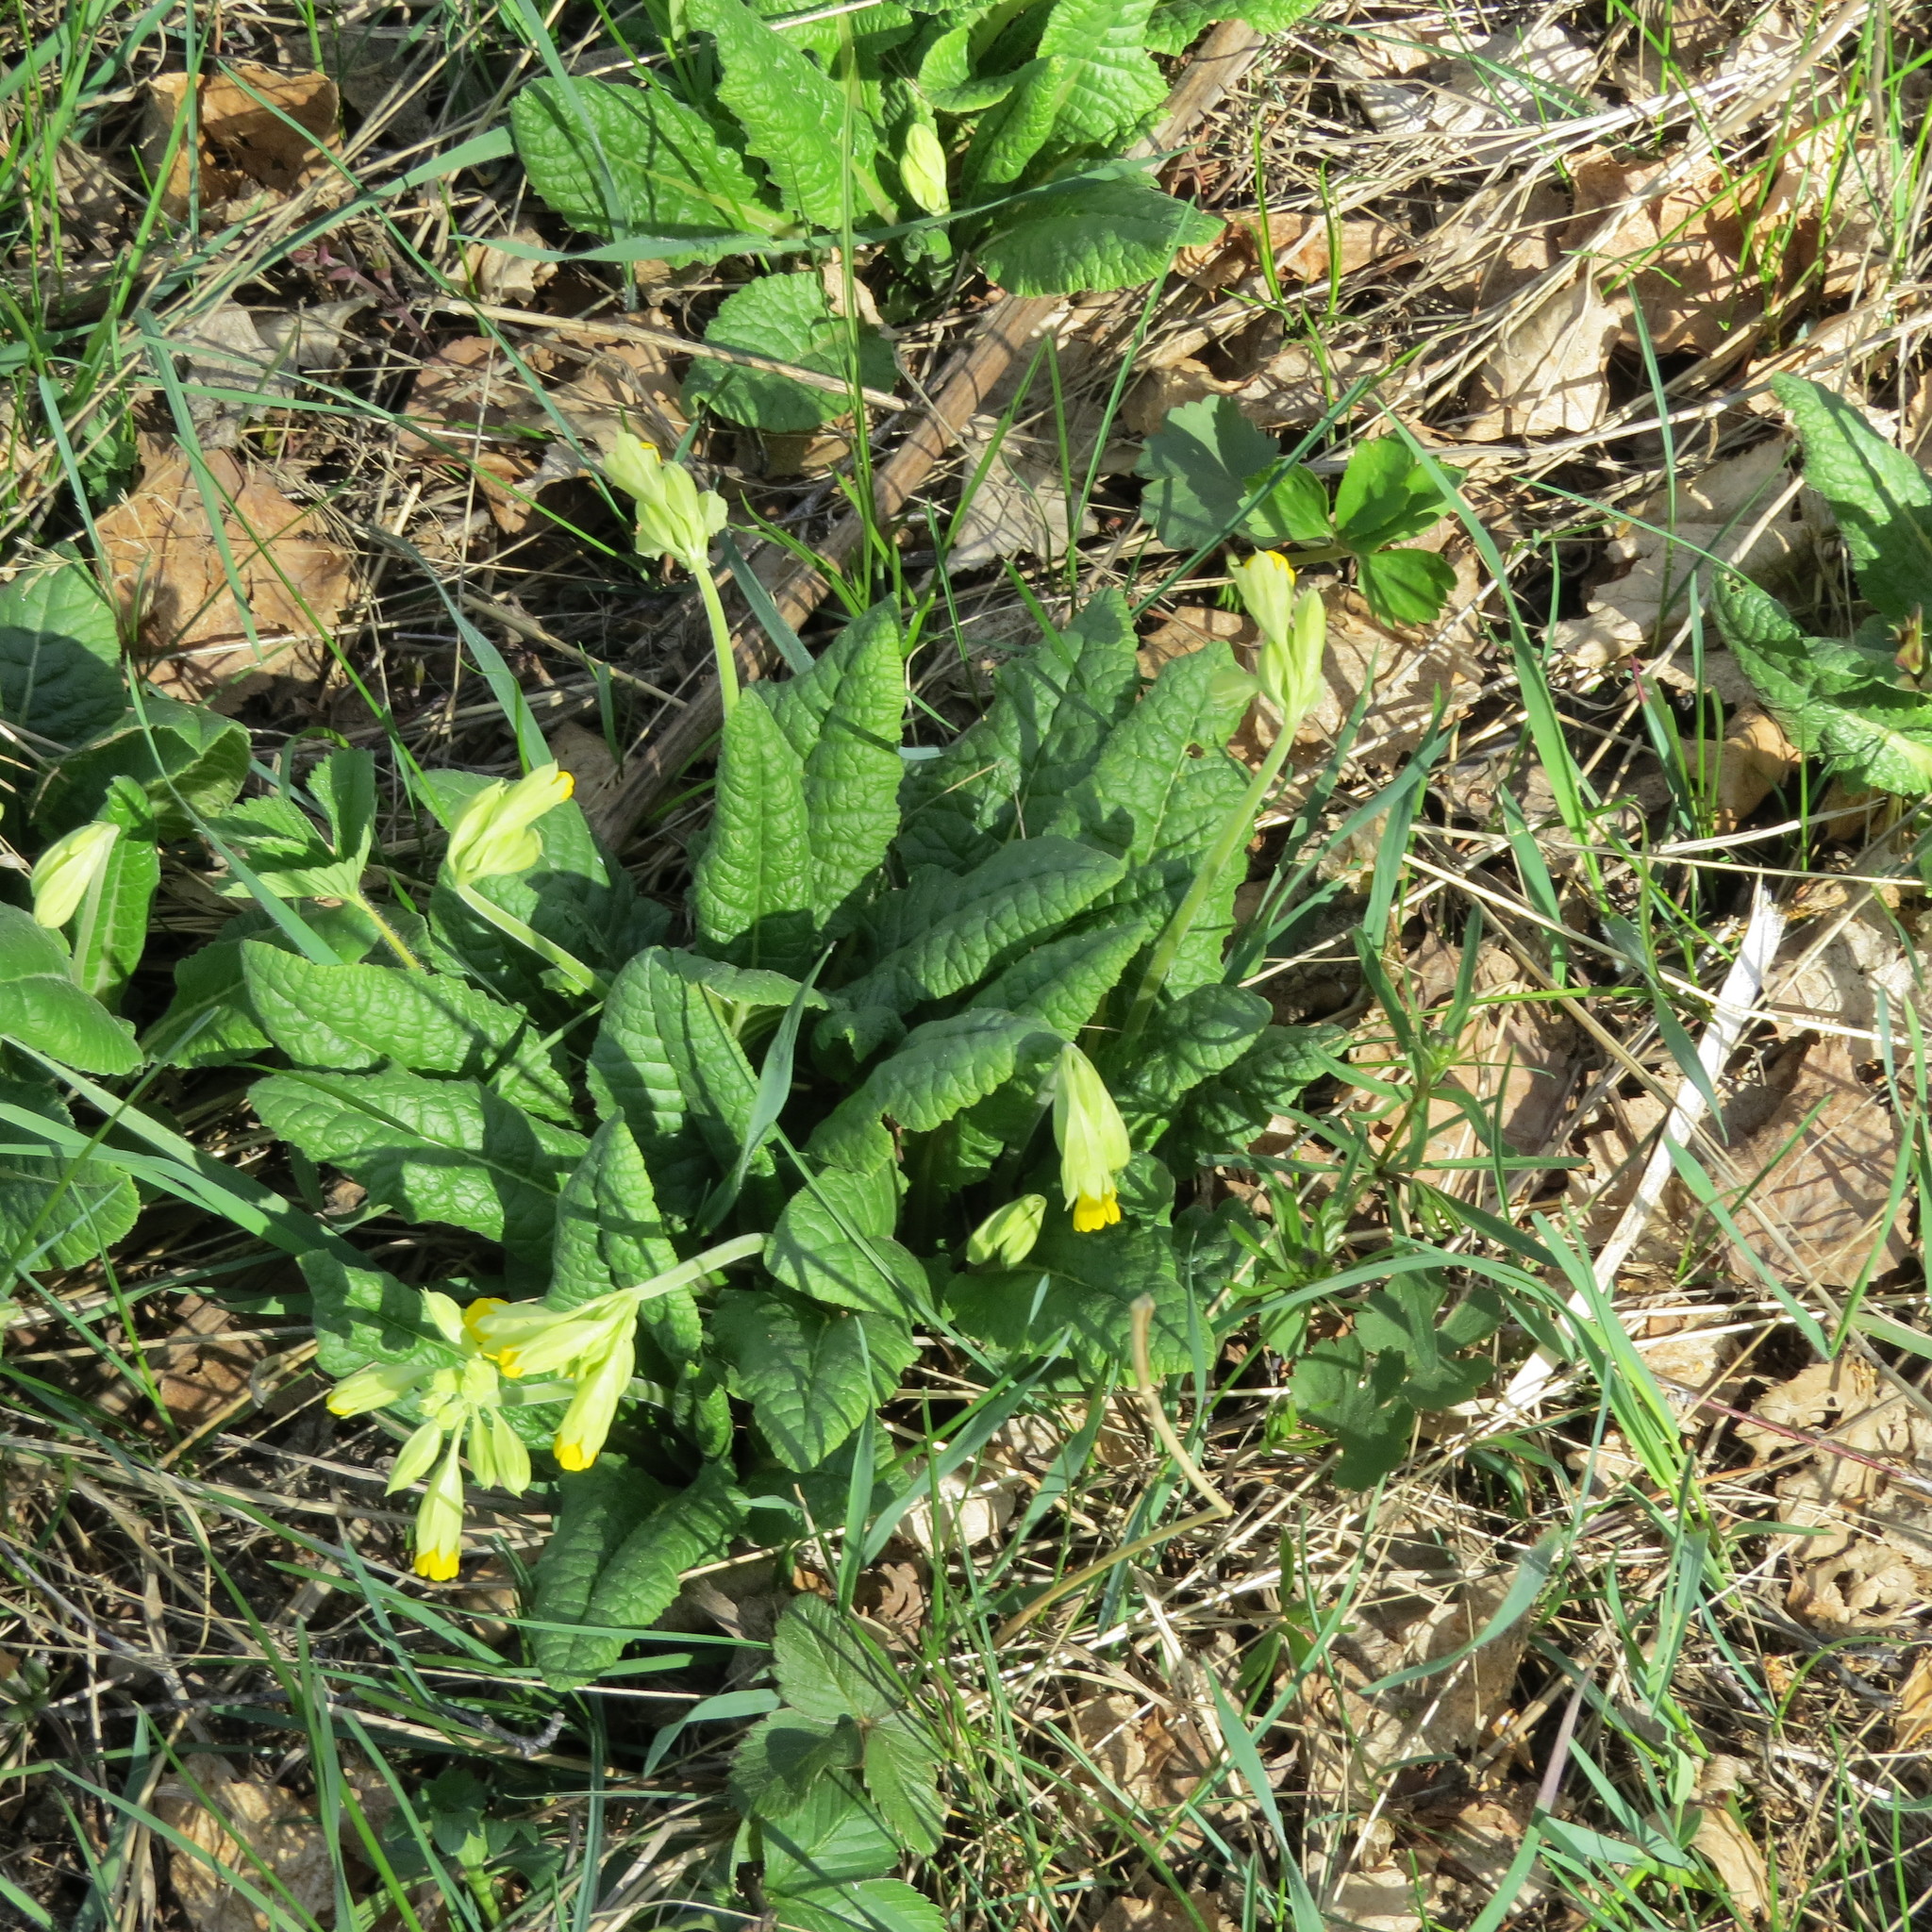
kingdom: Plantae
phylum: Tracheophyta
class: Magnoliopsida
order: Ericales
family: Primulaceae
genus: Primula
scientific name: Primula veris
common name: Cowslip
